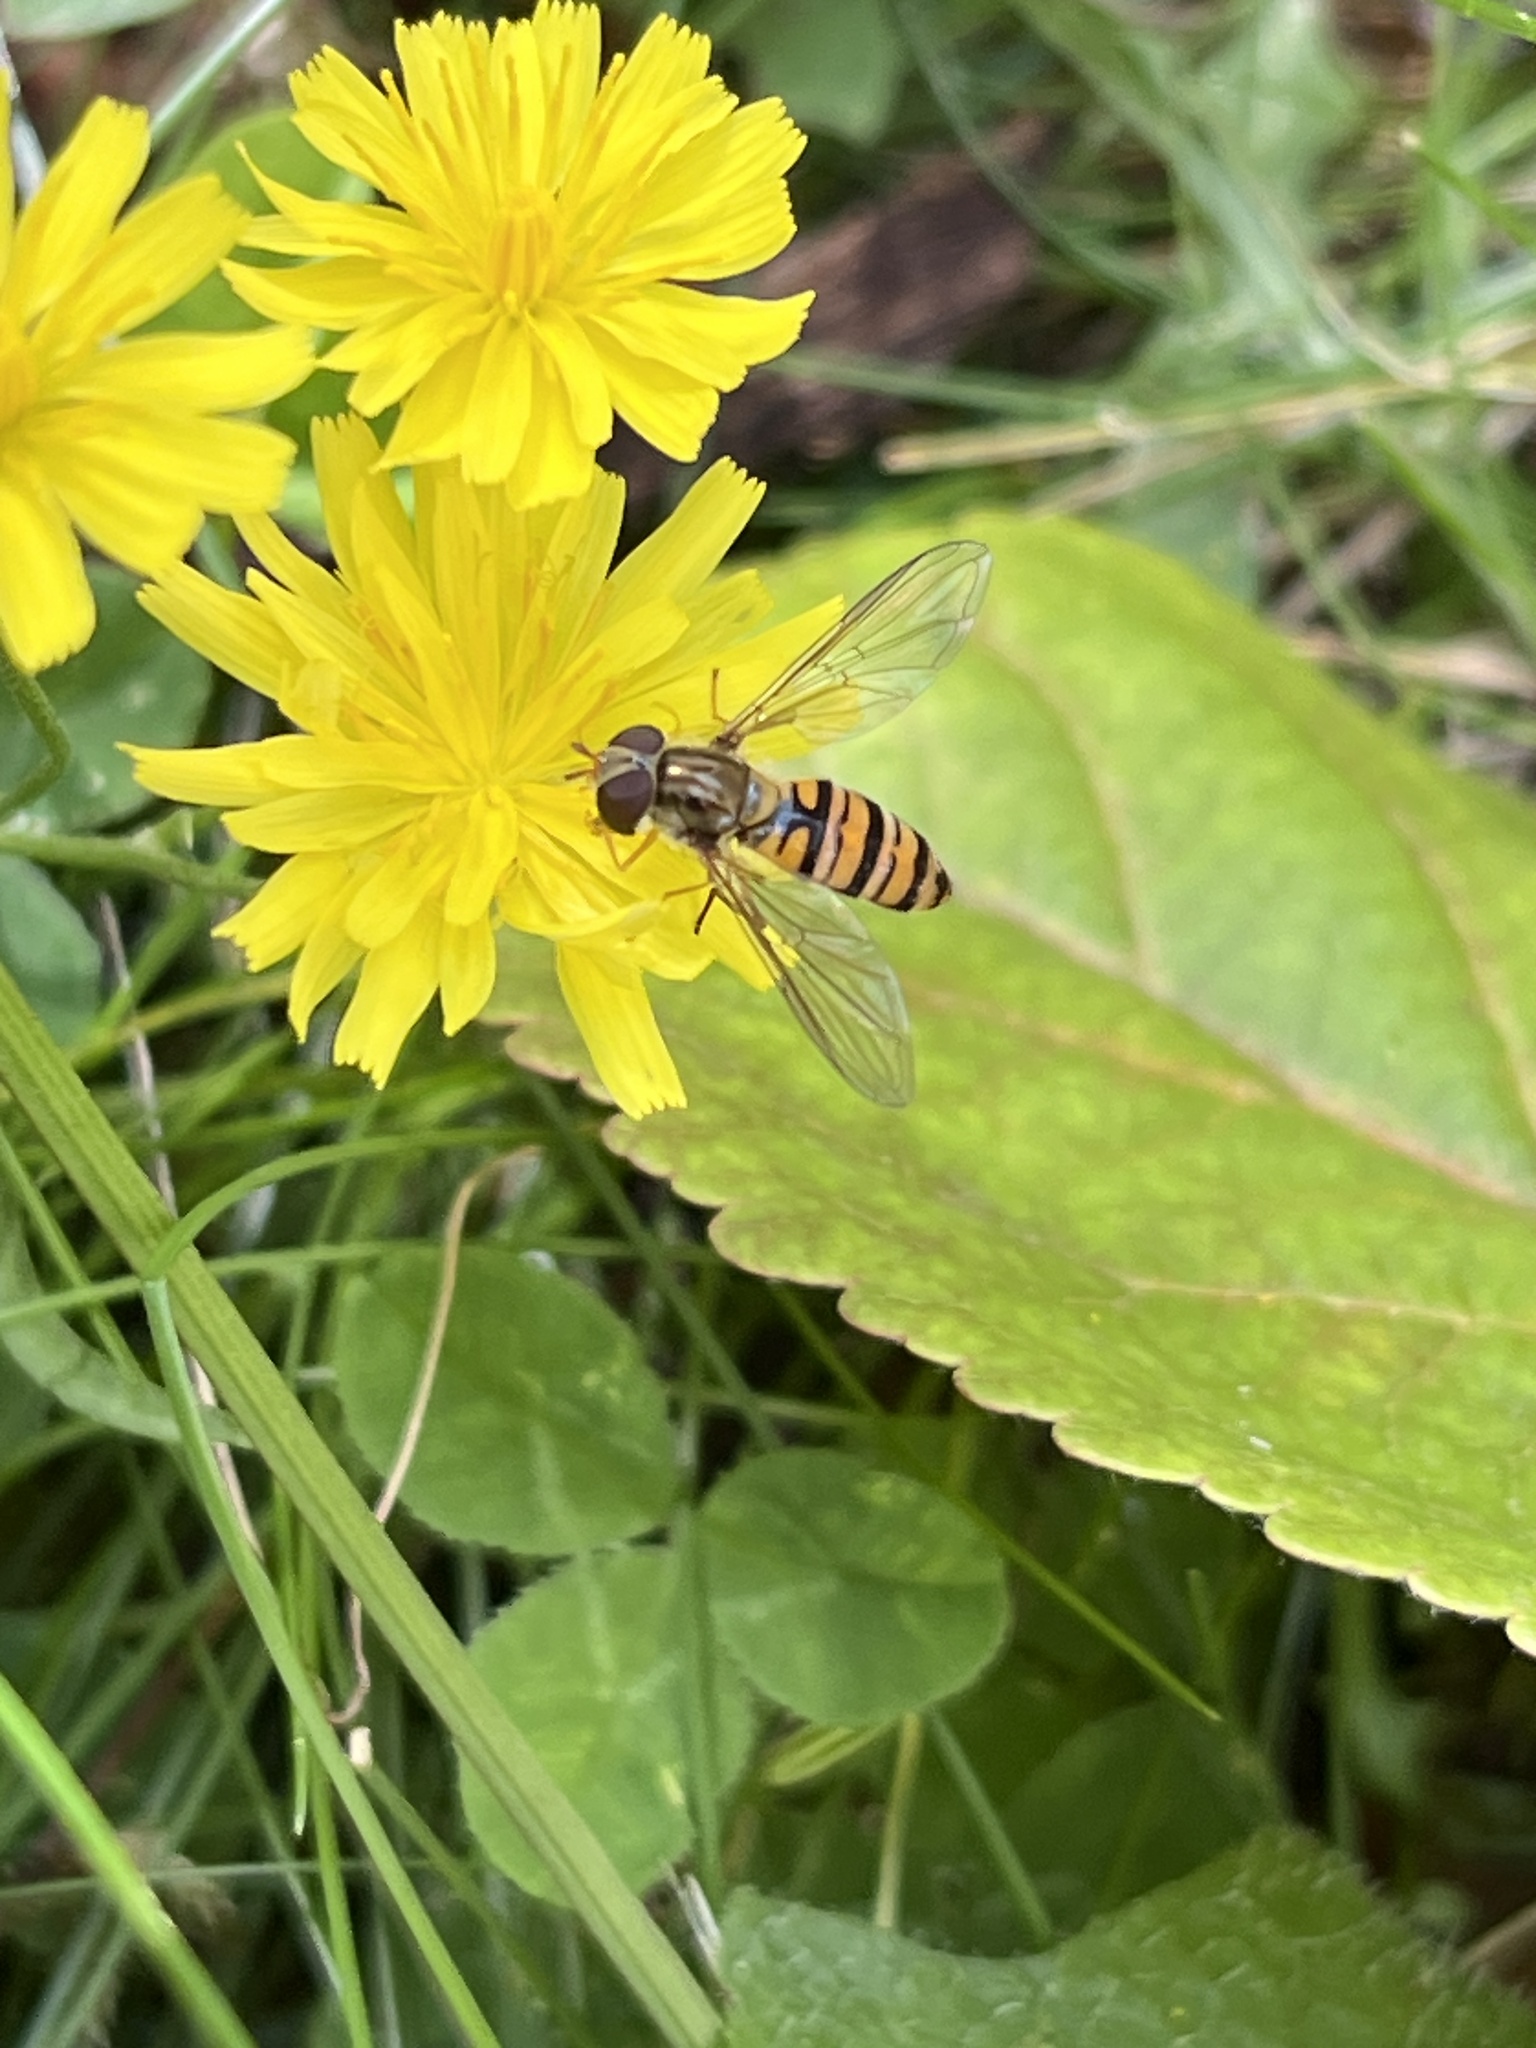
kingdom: Animalia
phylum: Arthropoda
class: Insecta
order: Diptera
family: Syrphidae
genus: Episyrphus
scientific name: Episyrphus balteatus
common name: Marmalade hoverfly
